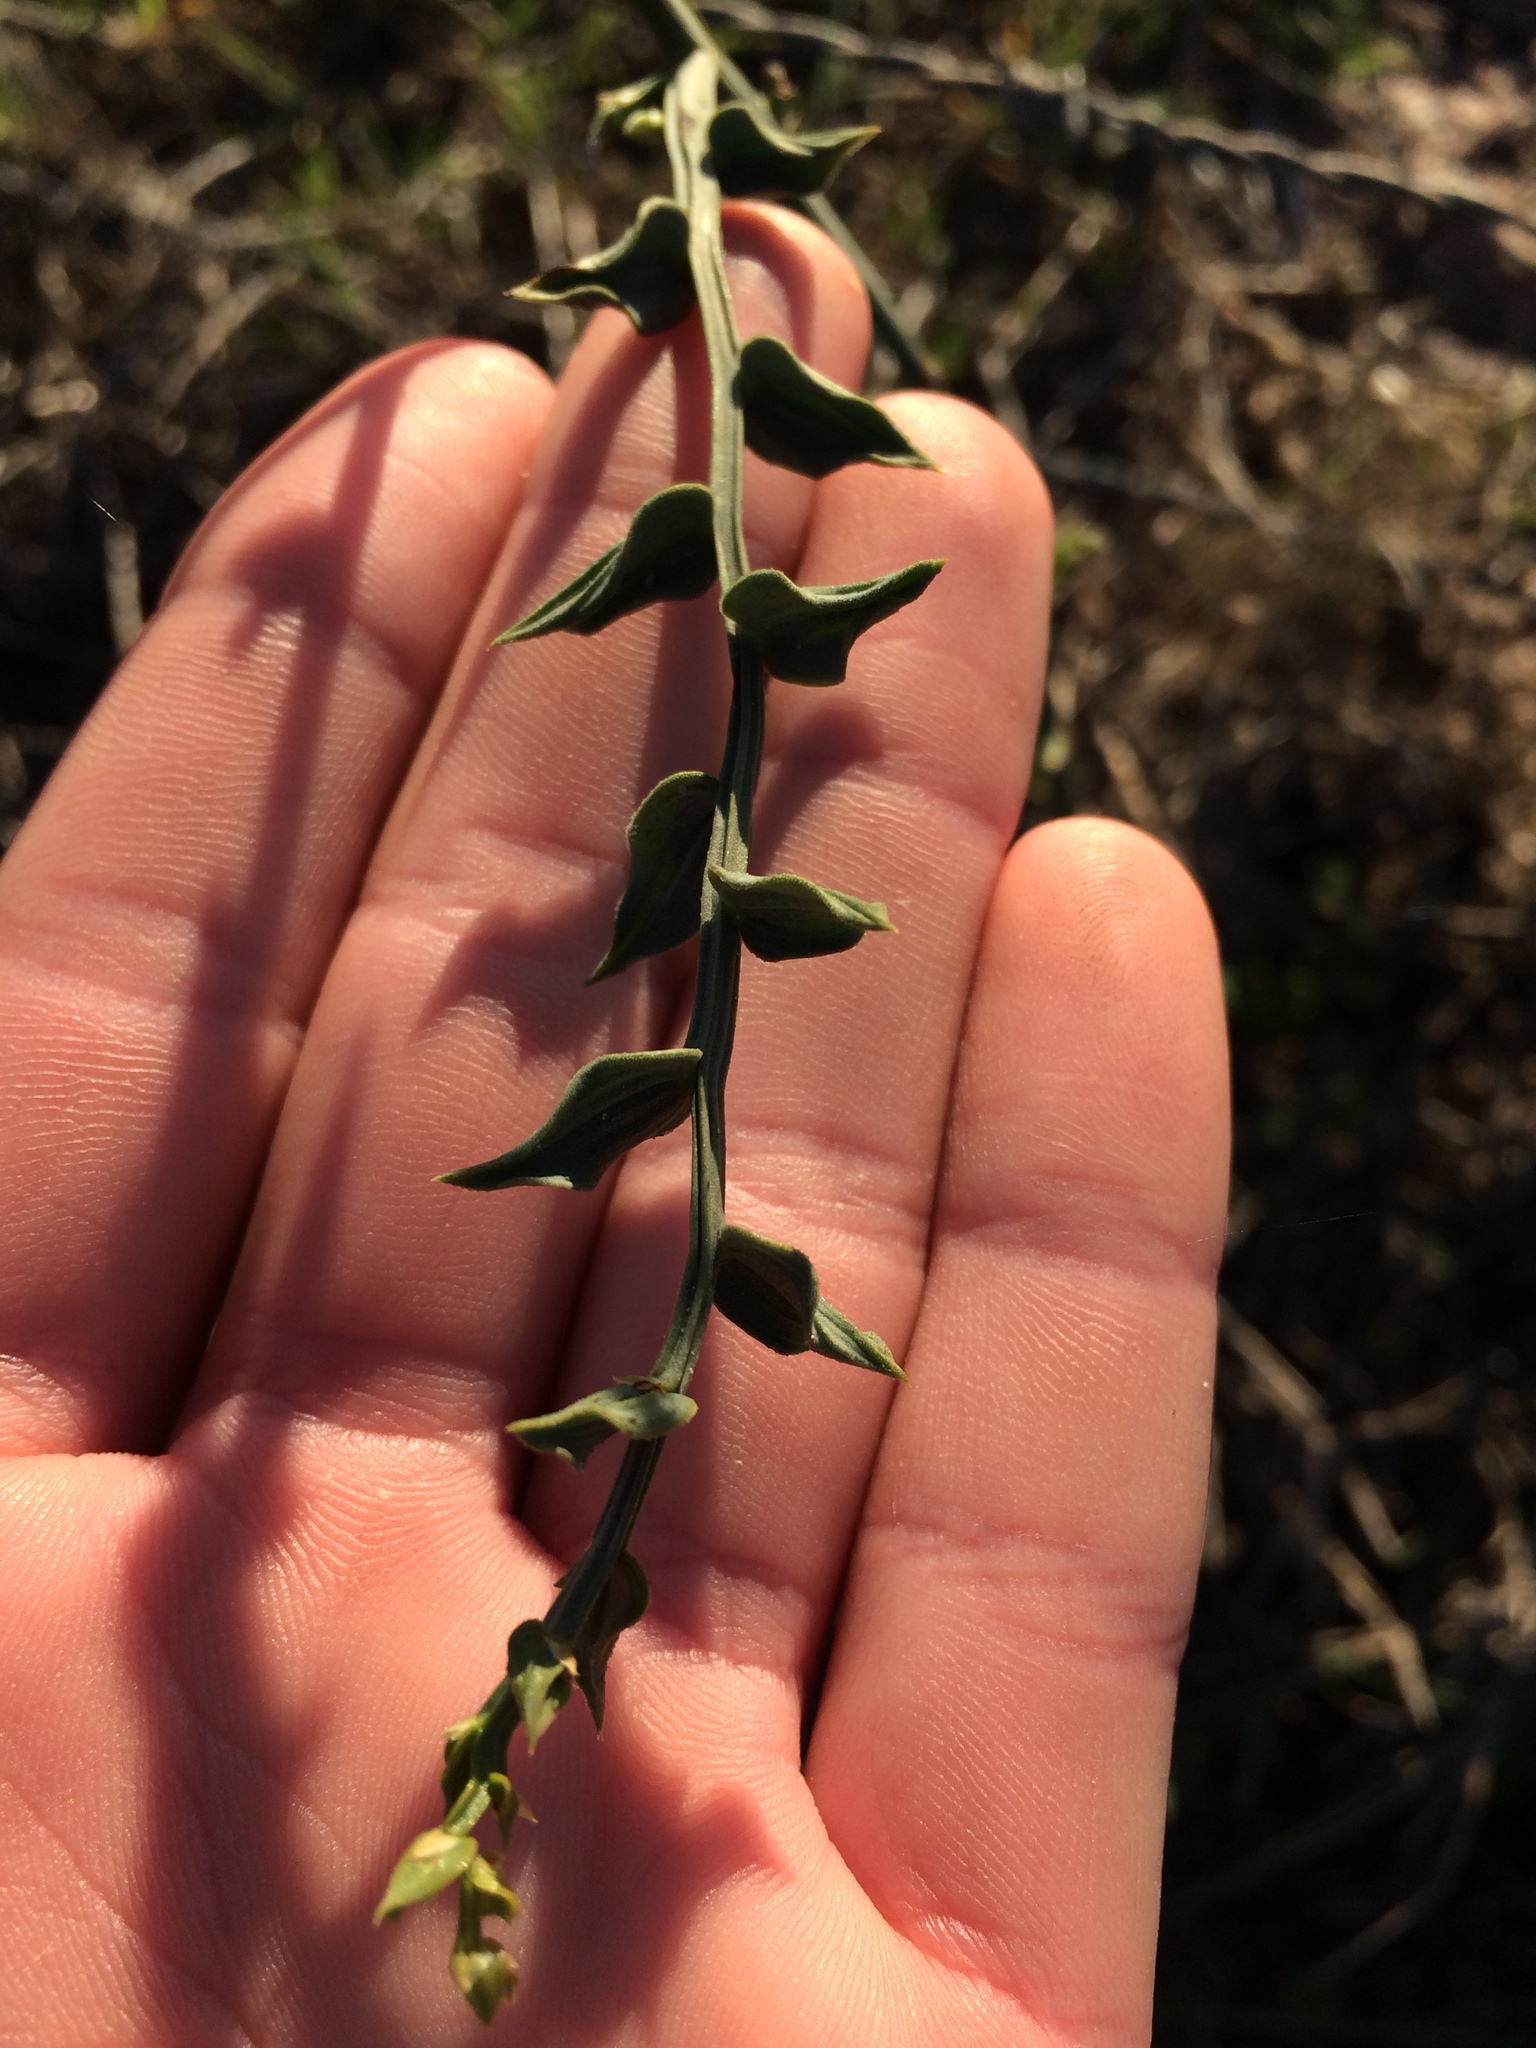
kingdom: Plantae
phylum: Tracheophyta
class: Liliopsida
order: Asparagales
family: Asparagaceae
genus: Asparagus
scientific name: Asparagus undulatus
